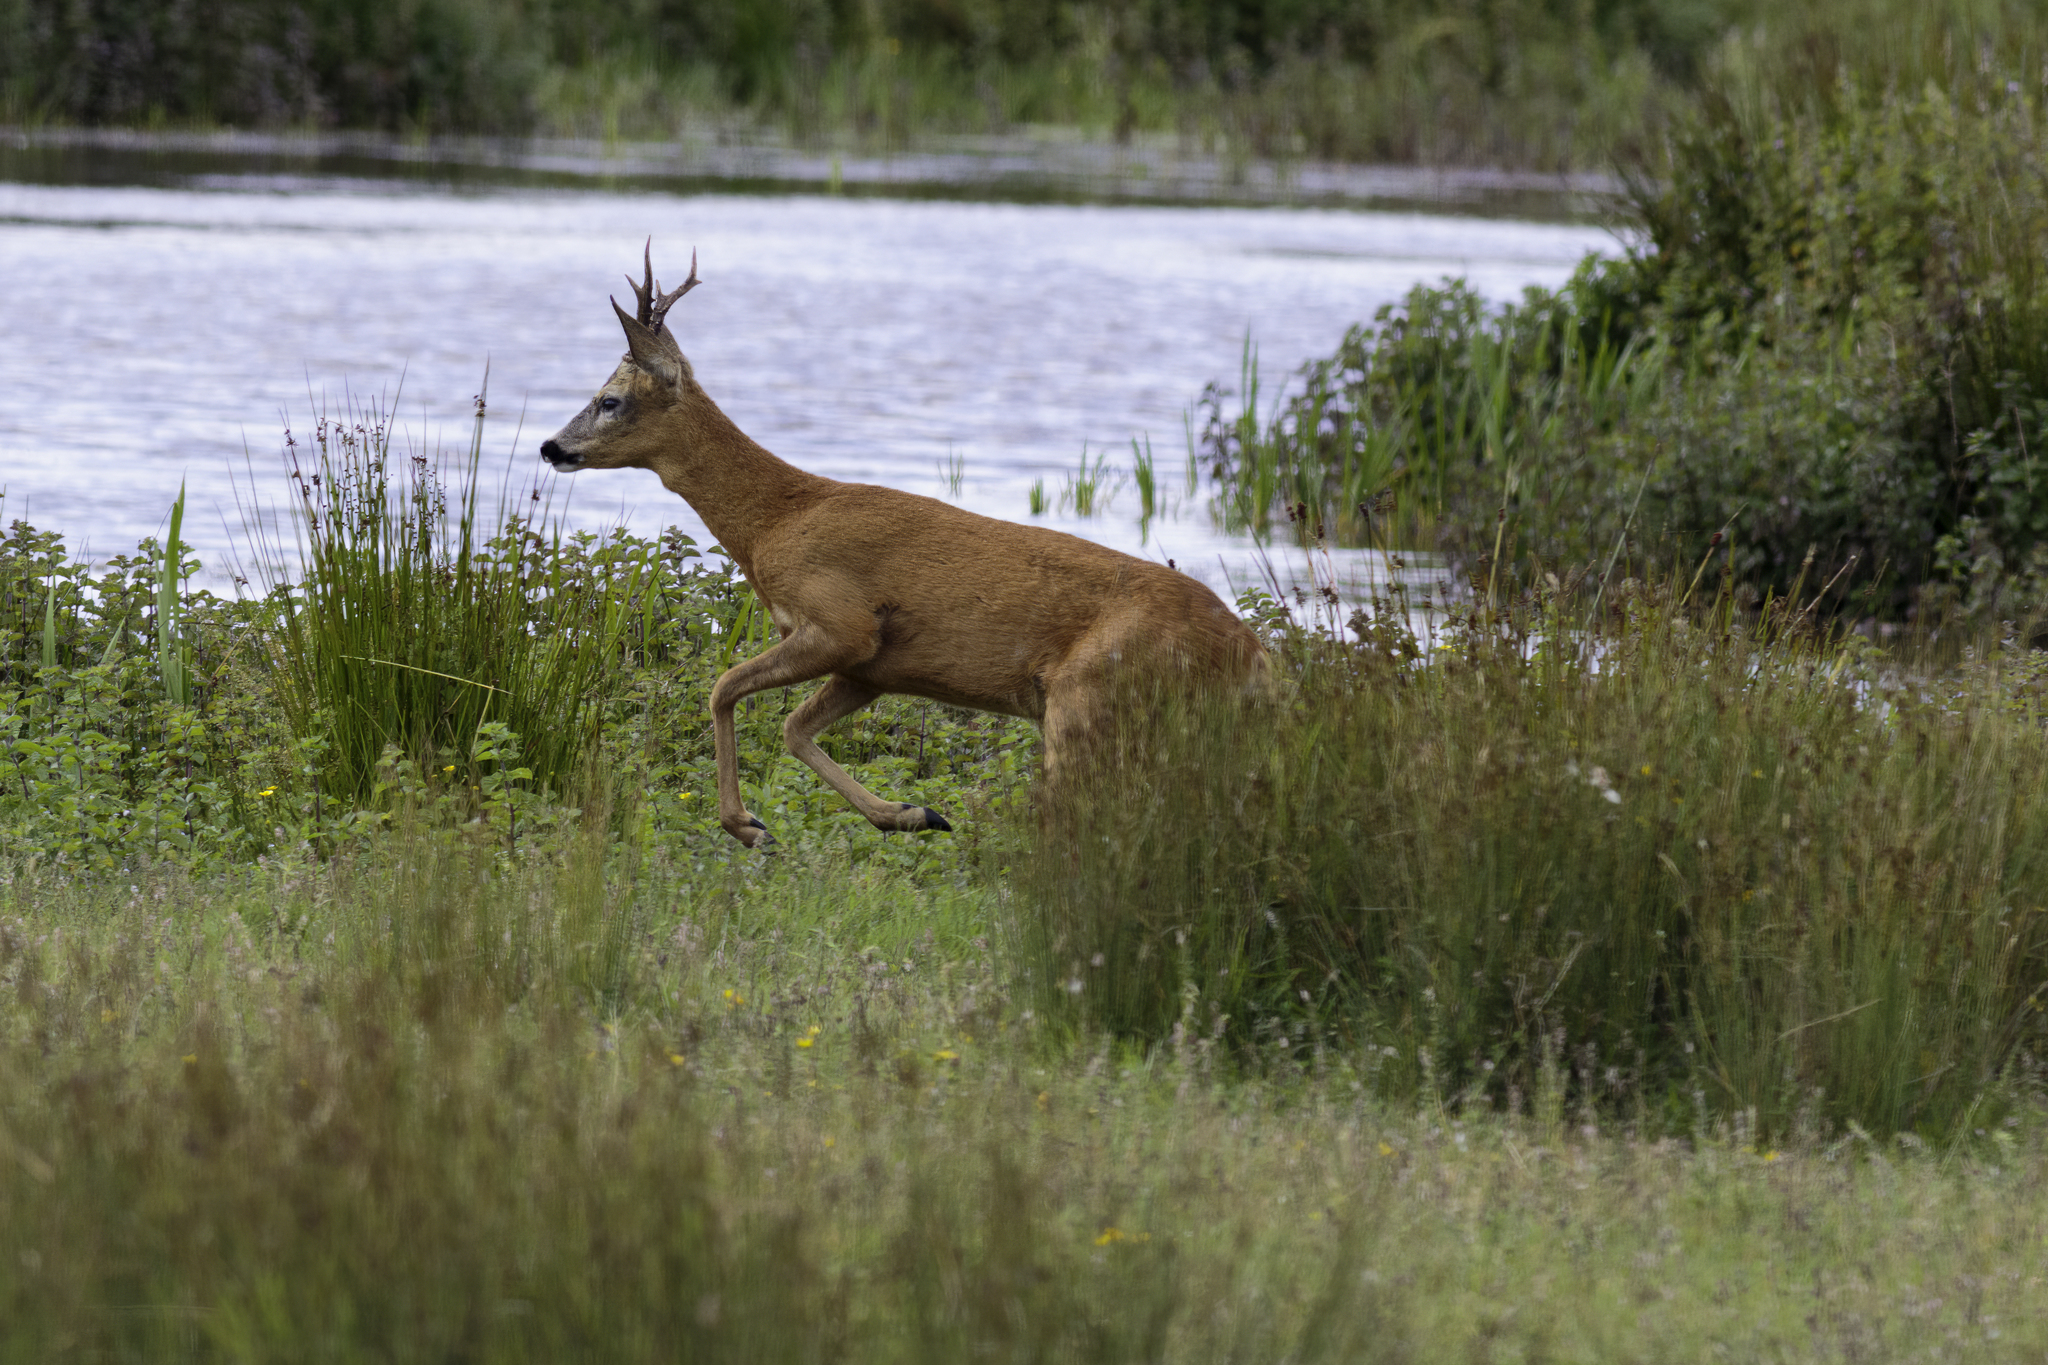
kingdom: Animalia
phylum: Chordata
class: Mammalia
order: Artiodactyla
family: Cervidae
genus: Capreolus
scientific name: Capreolus capreolus
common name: Western roe deer
